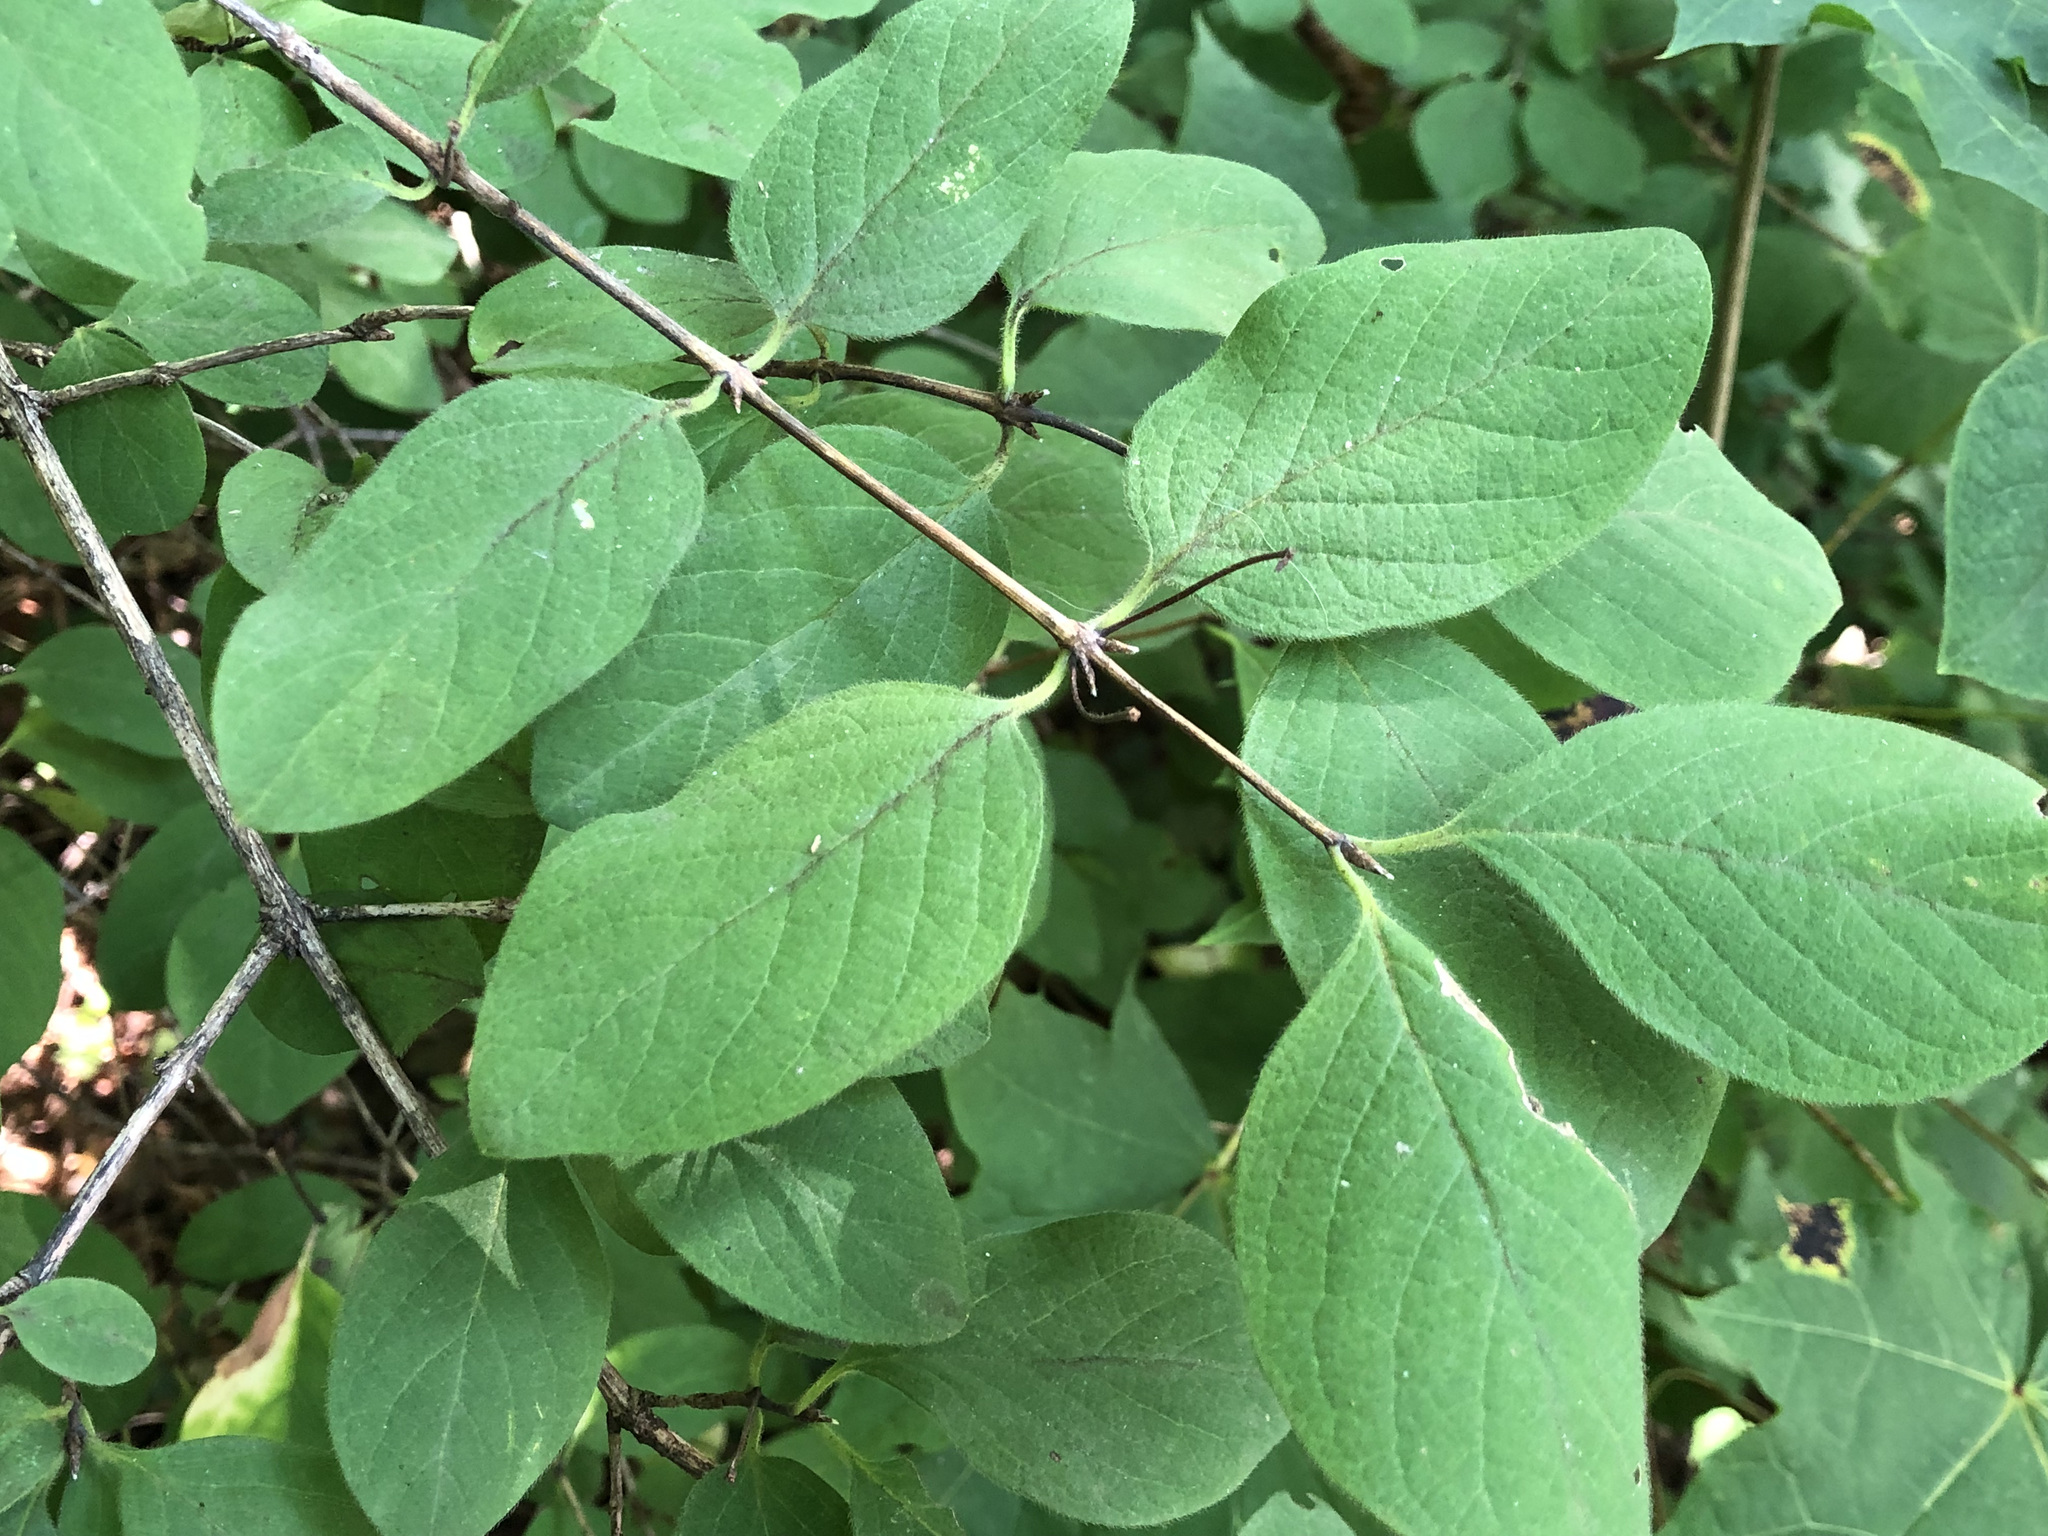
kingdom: Plantae
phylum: Tracheophyta
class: Magnoliopsida
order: Dipsacales
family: Caprifoliaceae
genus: Lonicera
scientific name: Lonicera xylosteum
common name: Fly honeysuckle
